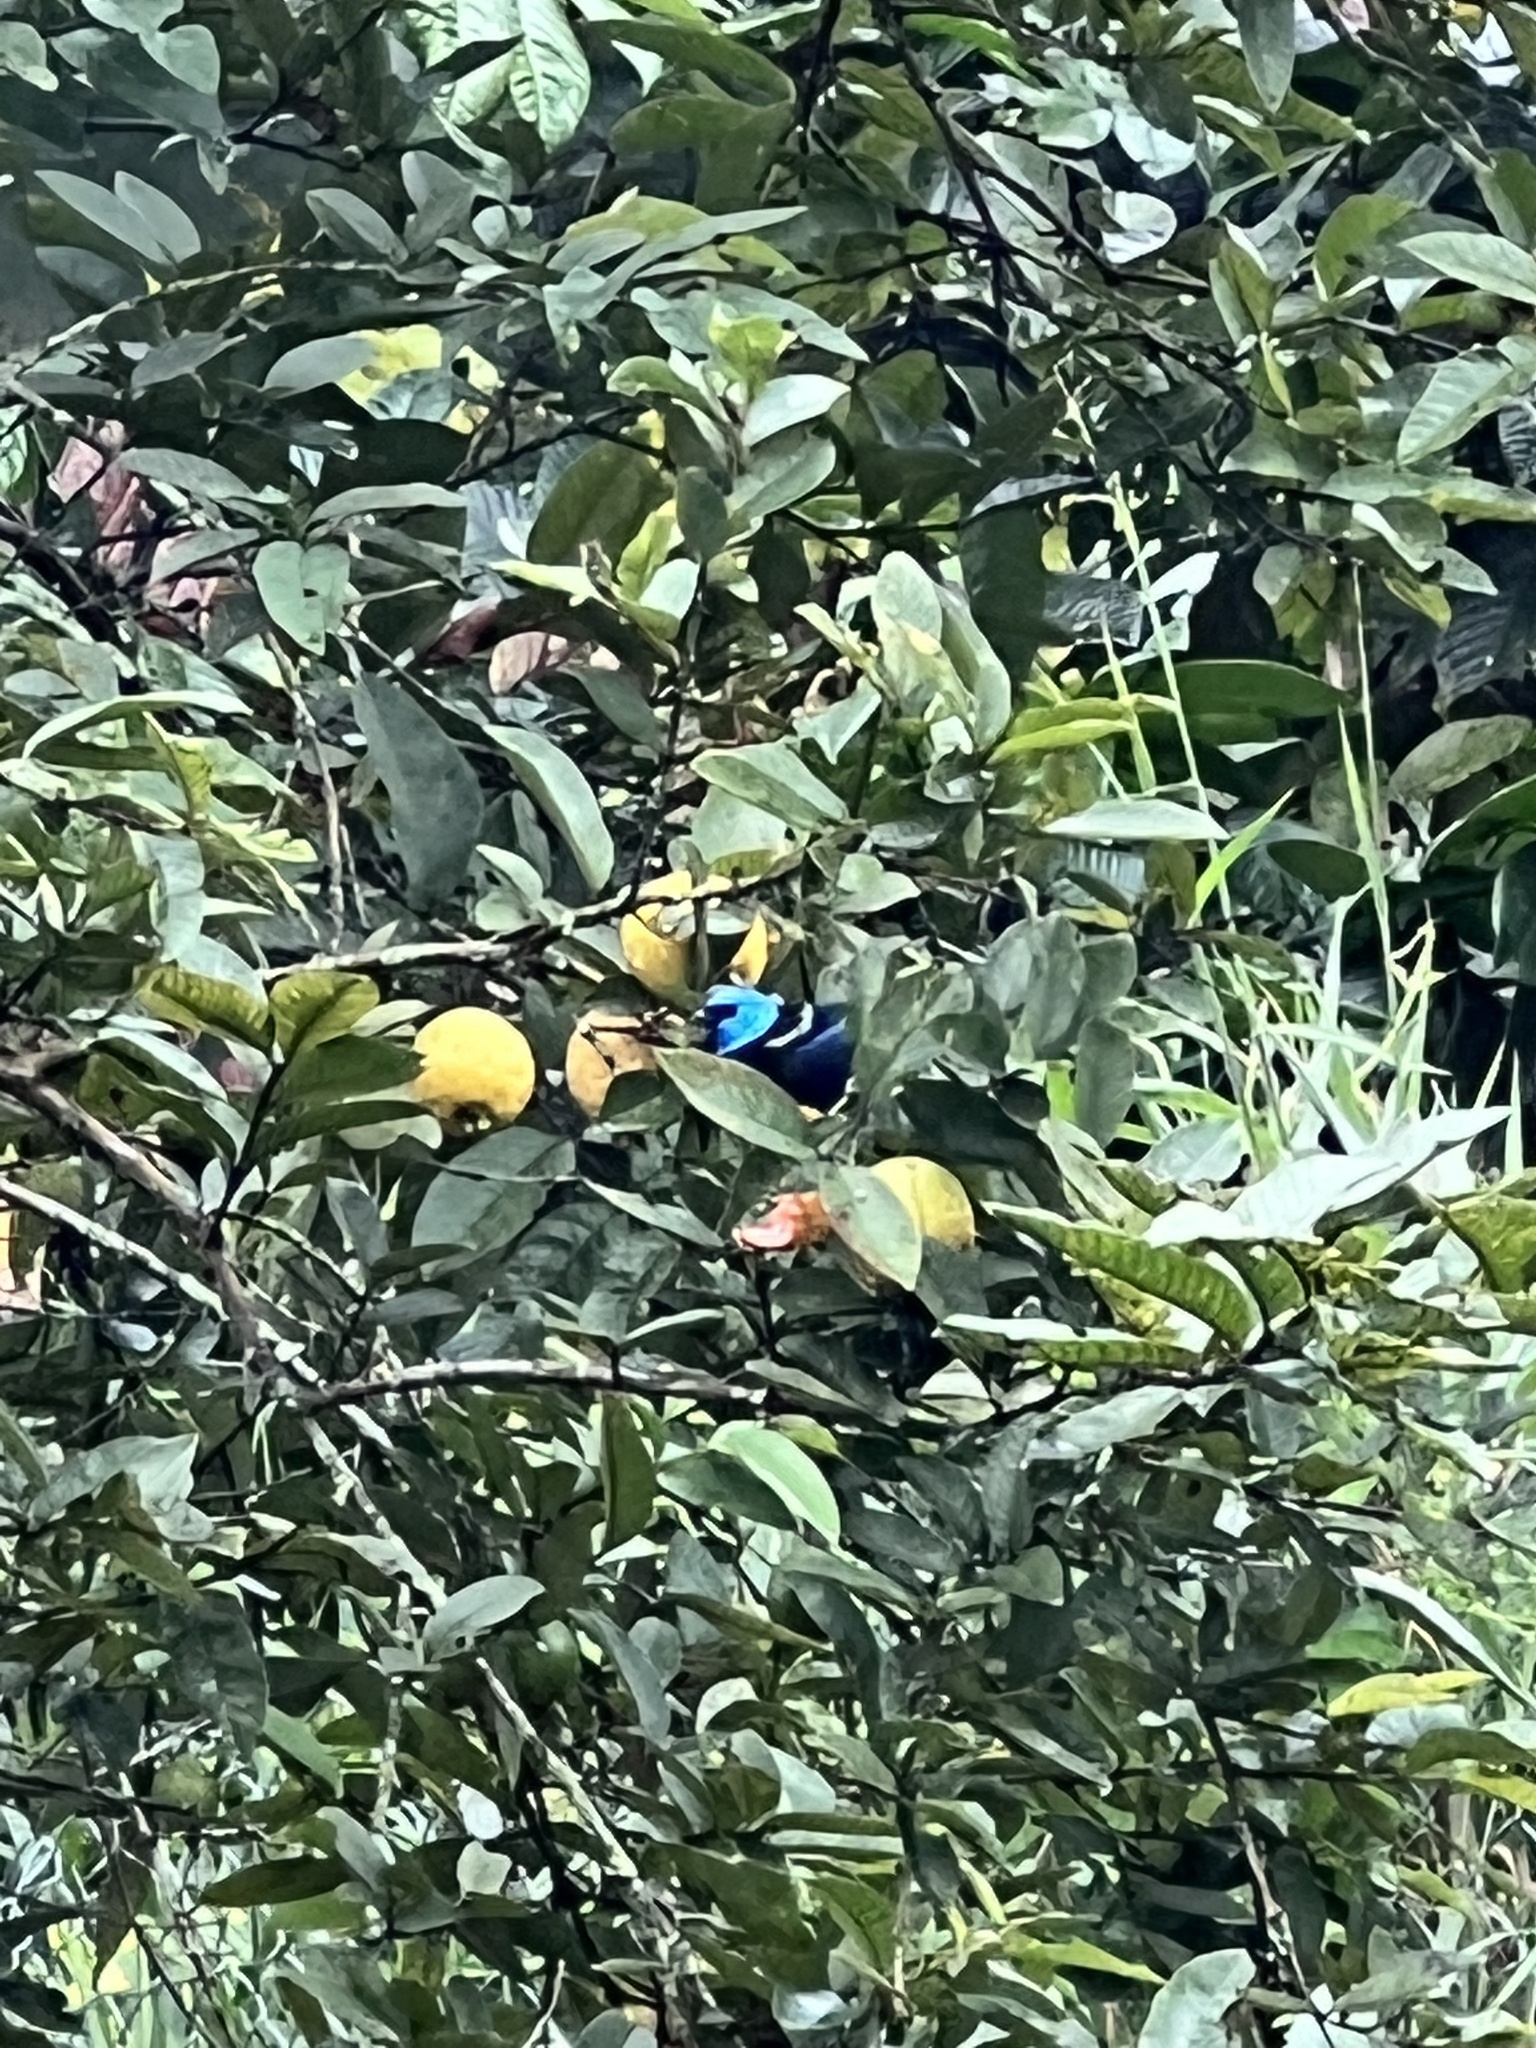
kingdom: Animalia
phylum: Chordata
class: Aves
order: Passeriformes
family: Thraupidae
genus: Stilpnia
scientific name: Stilpnia cyanicollis
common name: Blue-necked tanager
